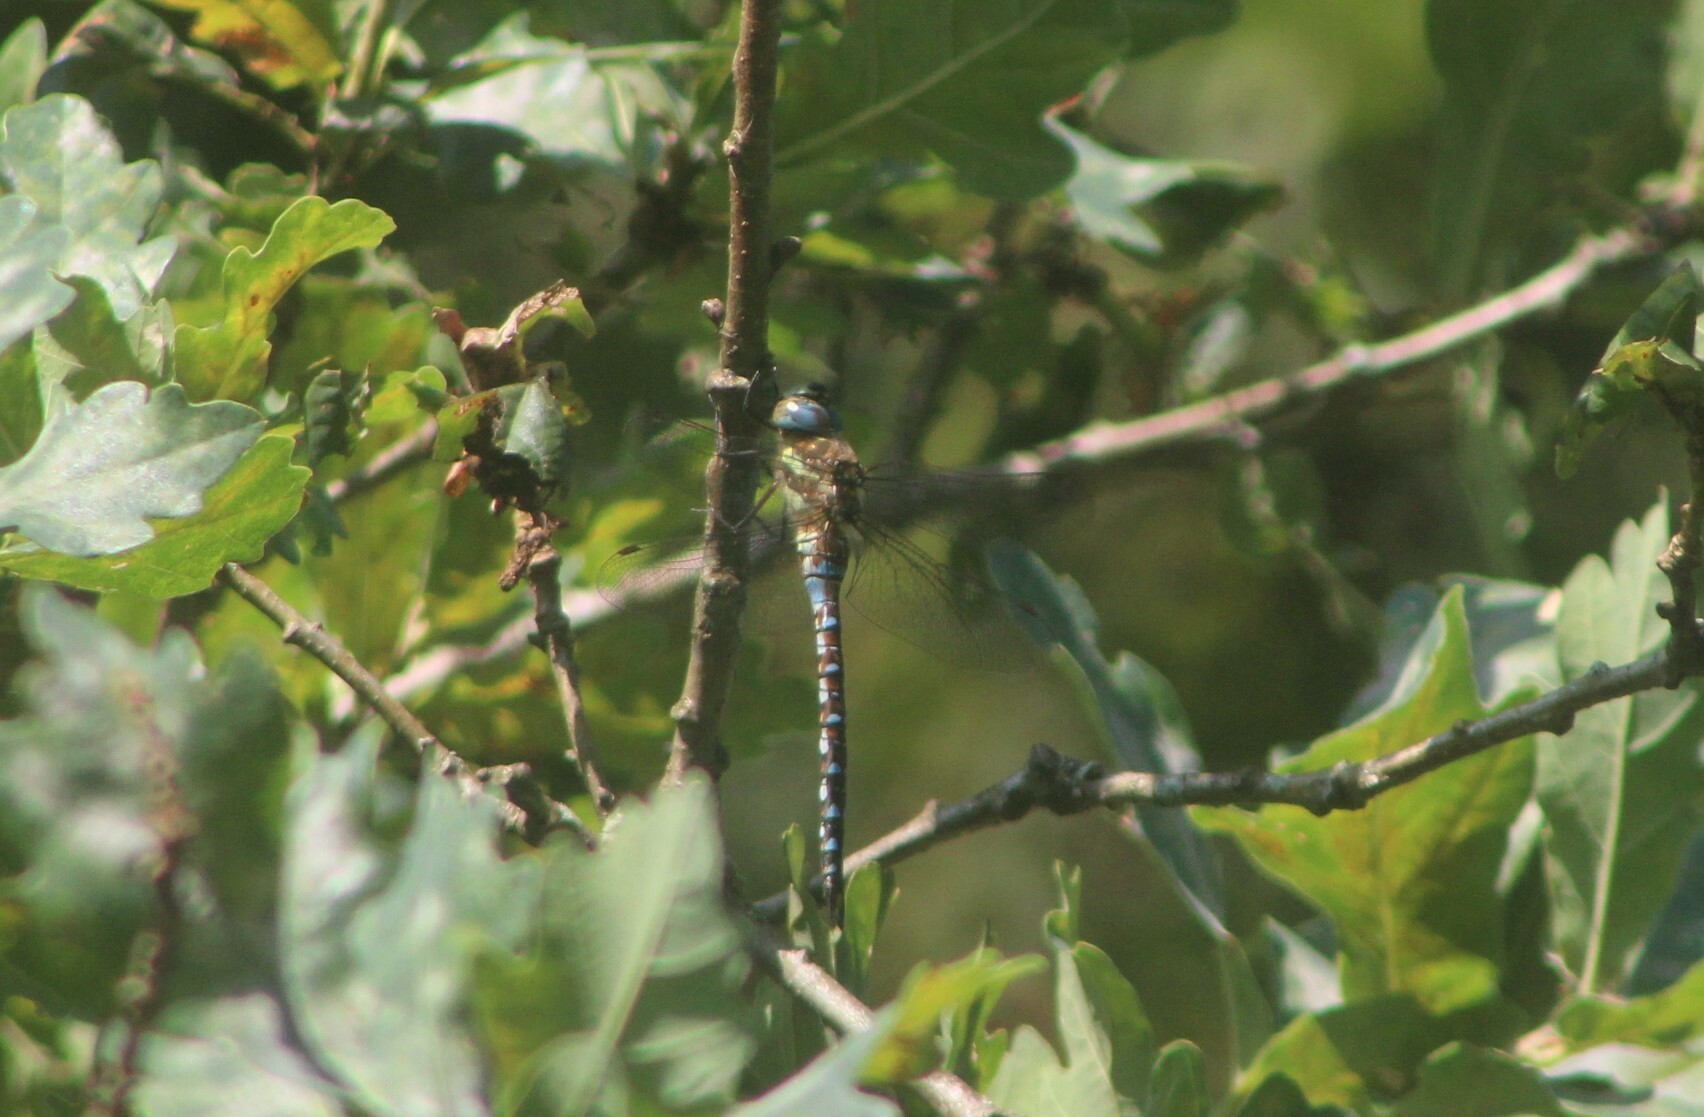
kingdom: Animalia
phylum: Arthropoda
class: Insecta
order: Odonata
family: Aeshnidae
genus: Aeshna
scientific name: Aeshna mixta
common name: Migrant hawker
